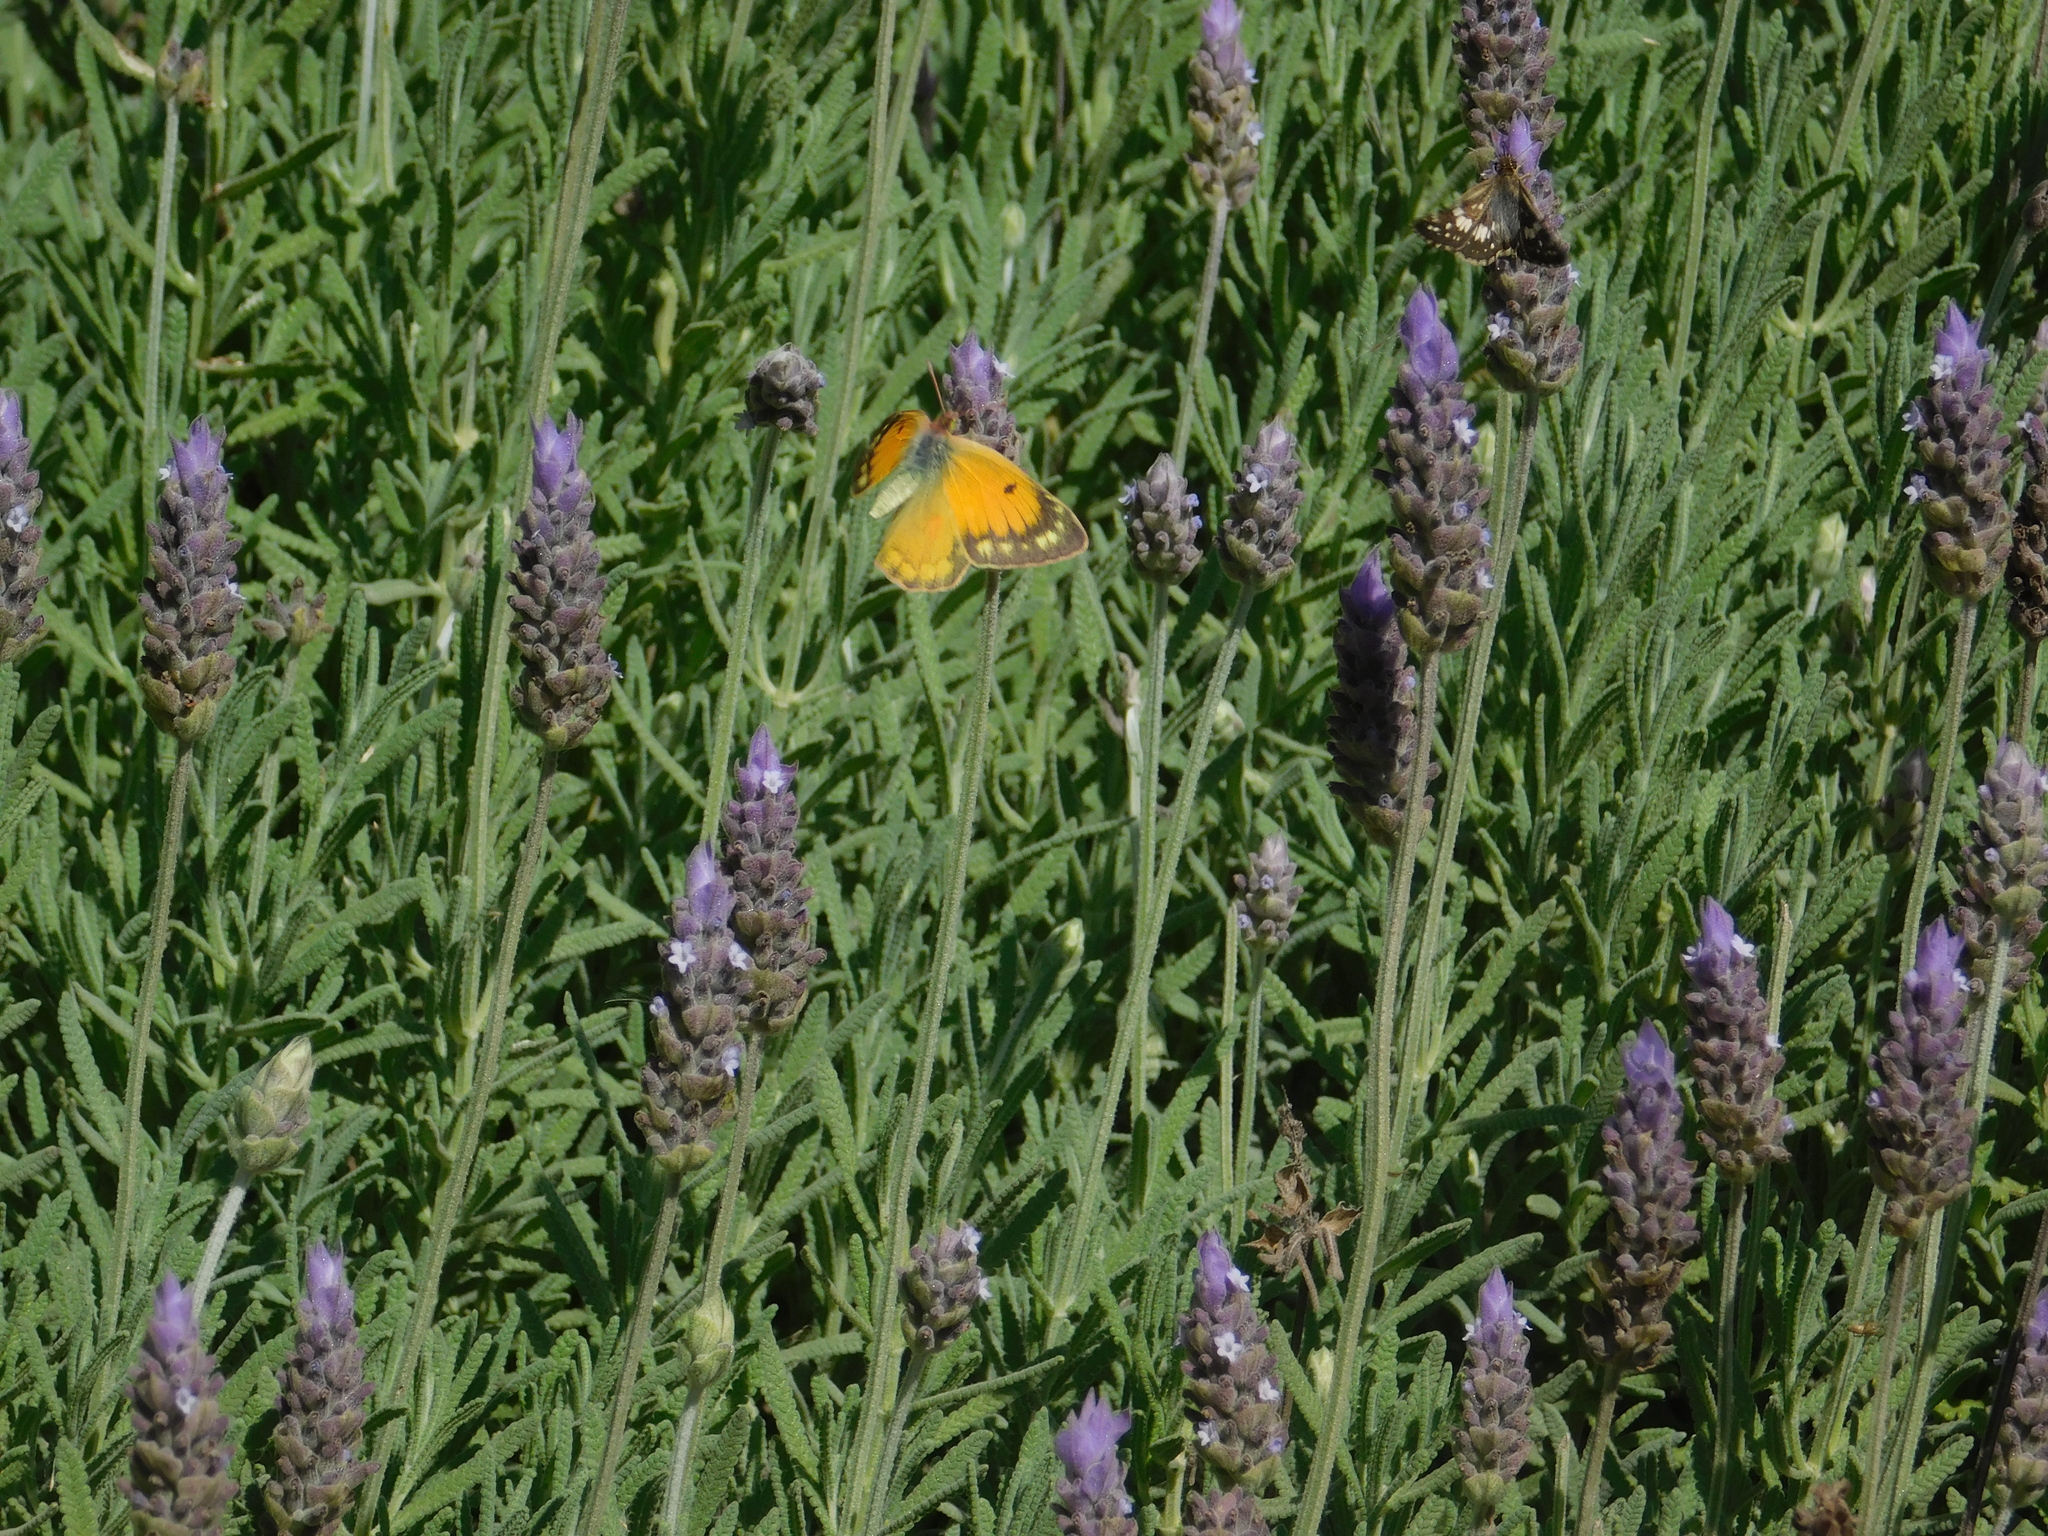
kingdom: Animalia
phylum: Arthropoda
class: Insecta
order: Lepidoptera
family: Pieridae
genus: Colias
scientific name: Colias lesbia
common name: Lesbia clouded yellow
